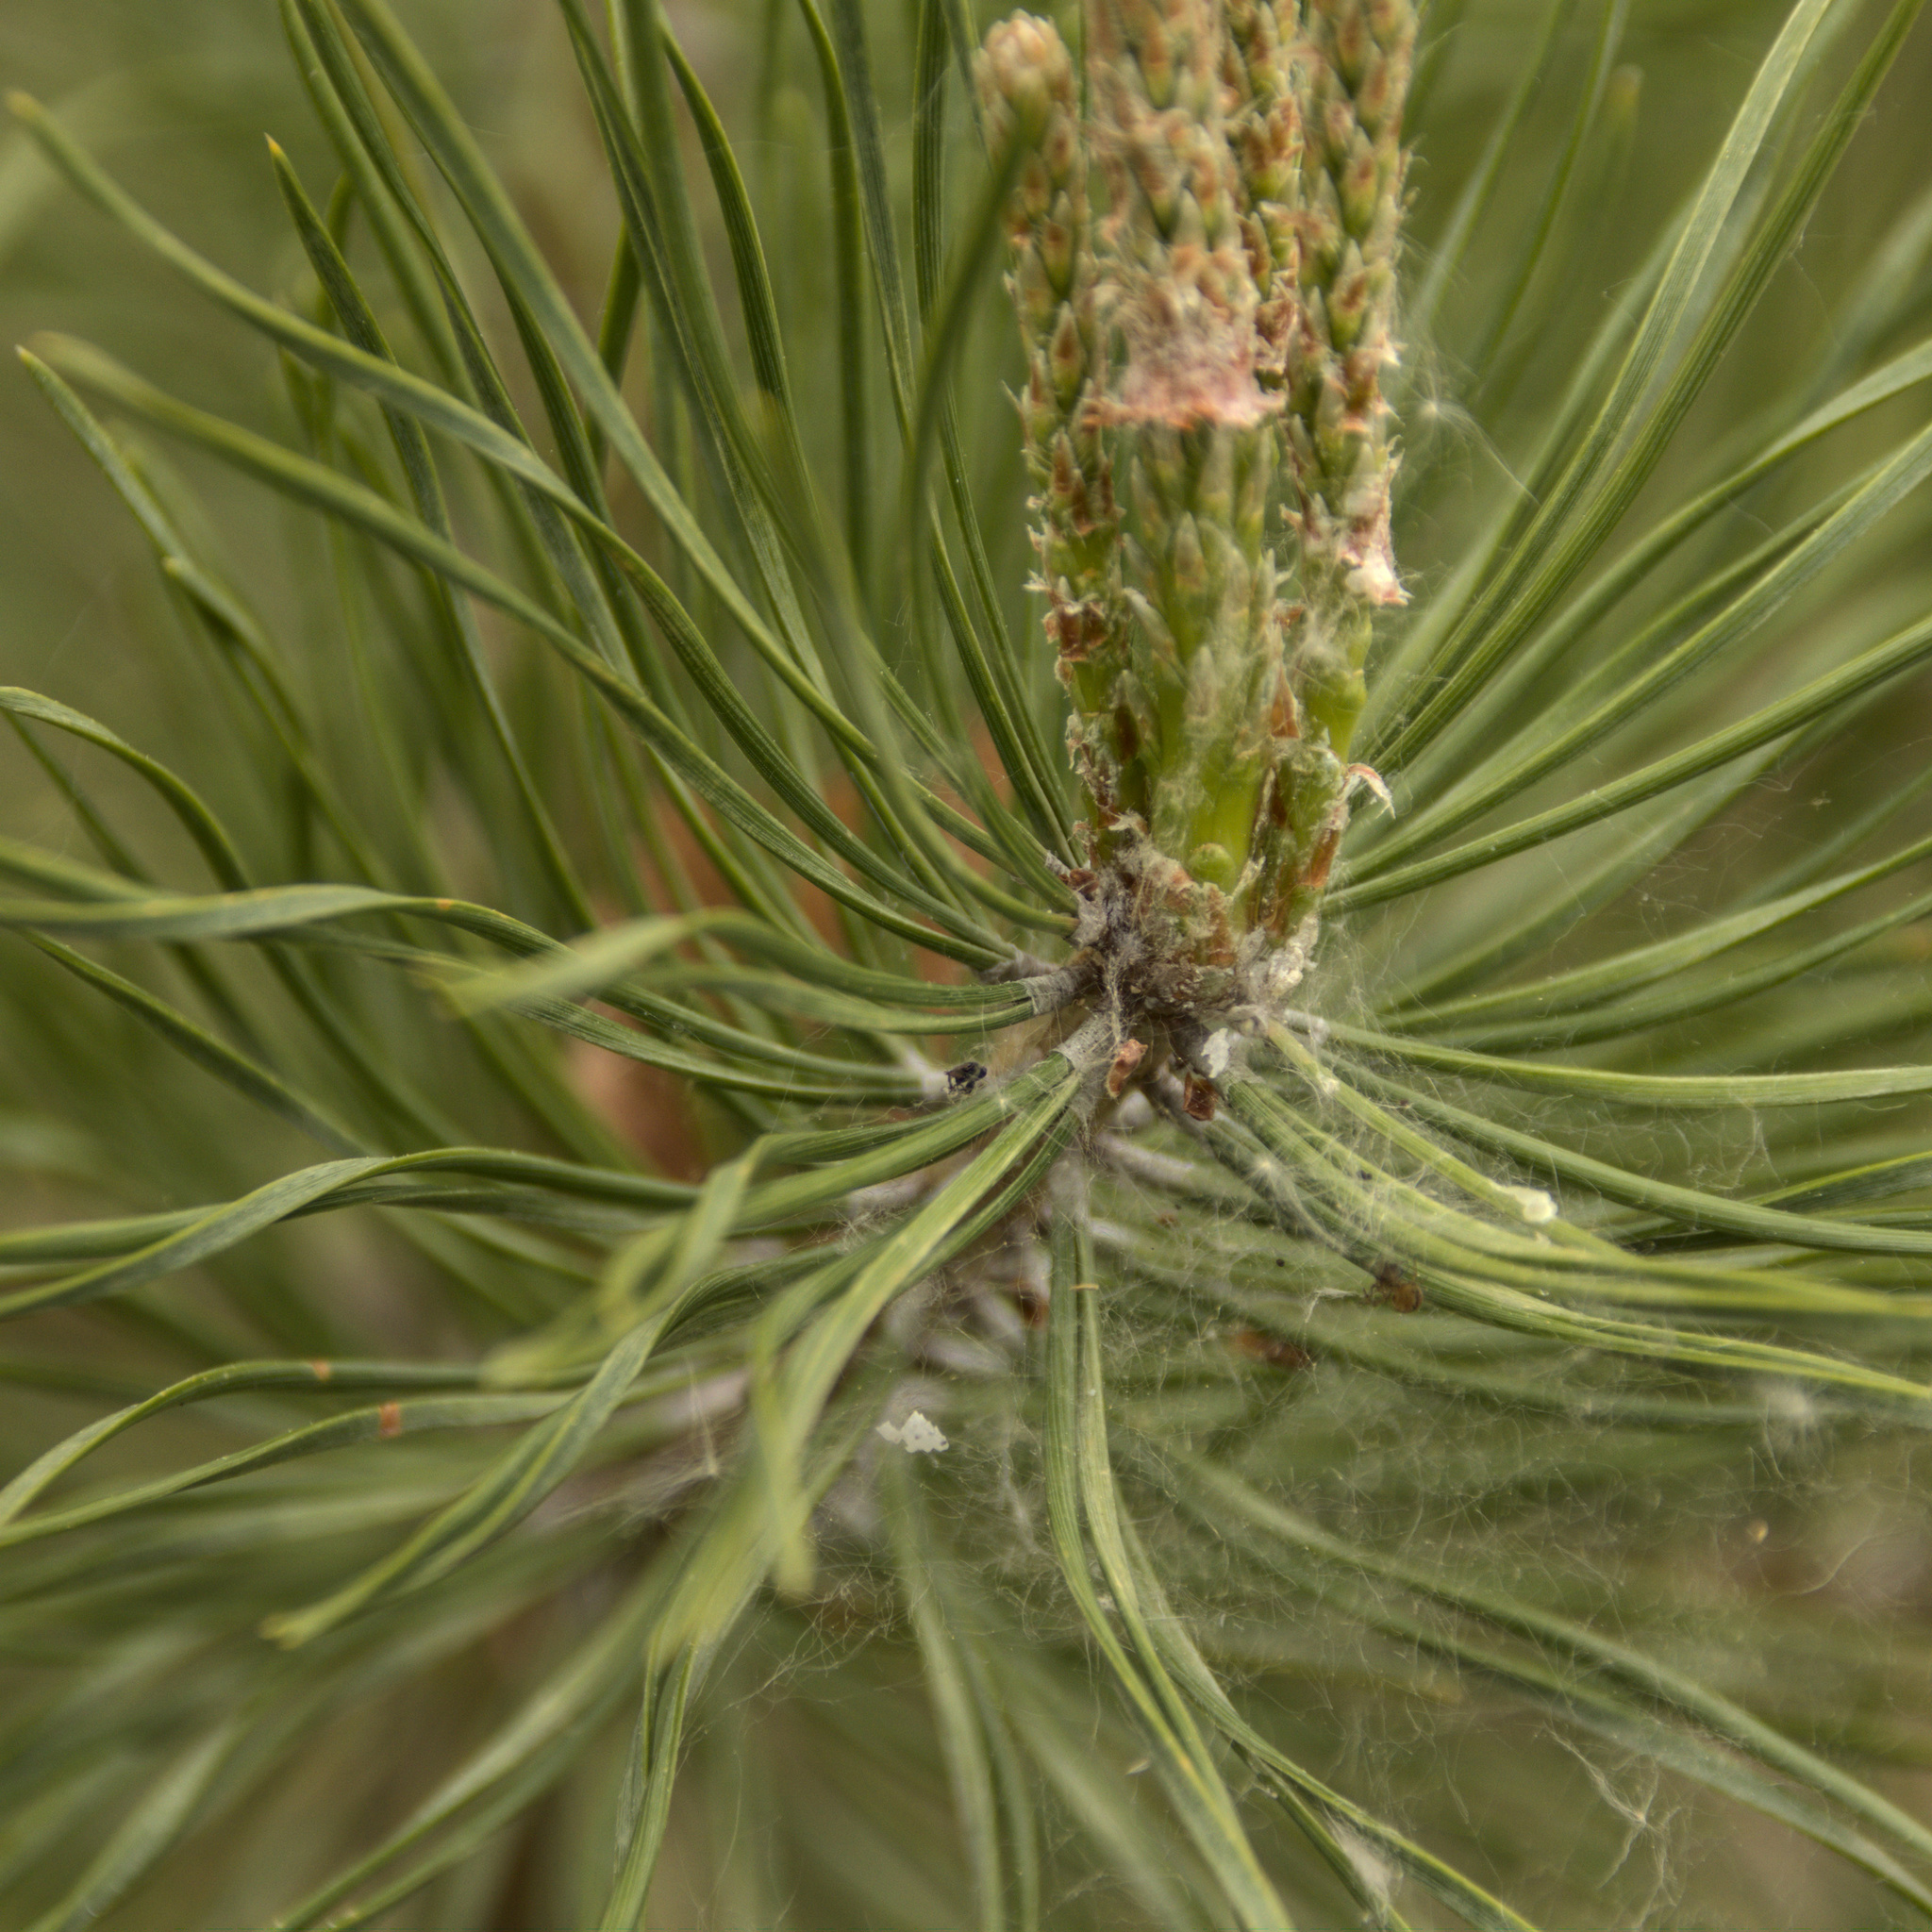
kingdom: Plantae
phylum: Tracheophyta
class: Pinopsida
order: Pinales
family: Pinaceae
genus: Pinus
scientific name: Pinus sylvestris
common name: Scots pine
